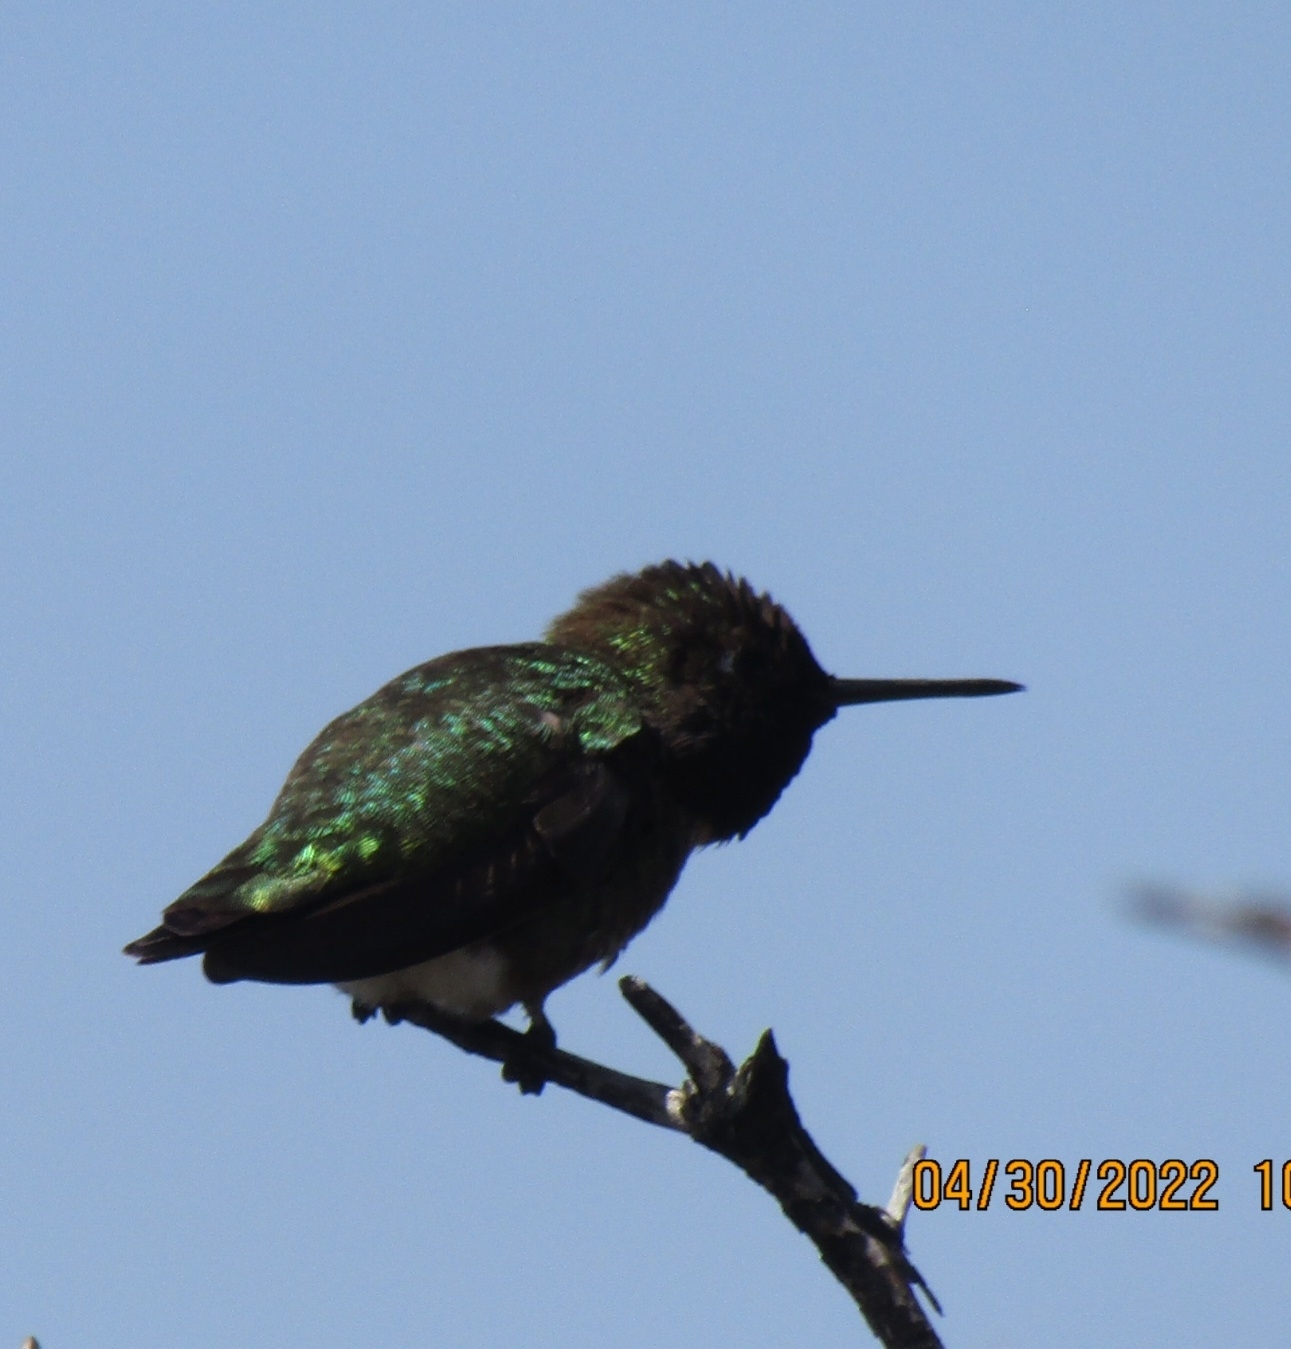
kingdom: Animalia
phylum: Chordata
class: Aves
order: Apodiformes
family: Trochilidae
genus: Calypte
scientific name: Calypte anna
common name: Anna's hummingbird
